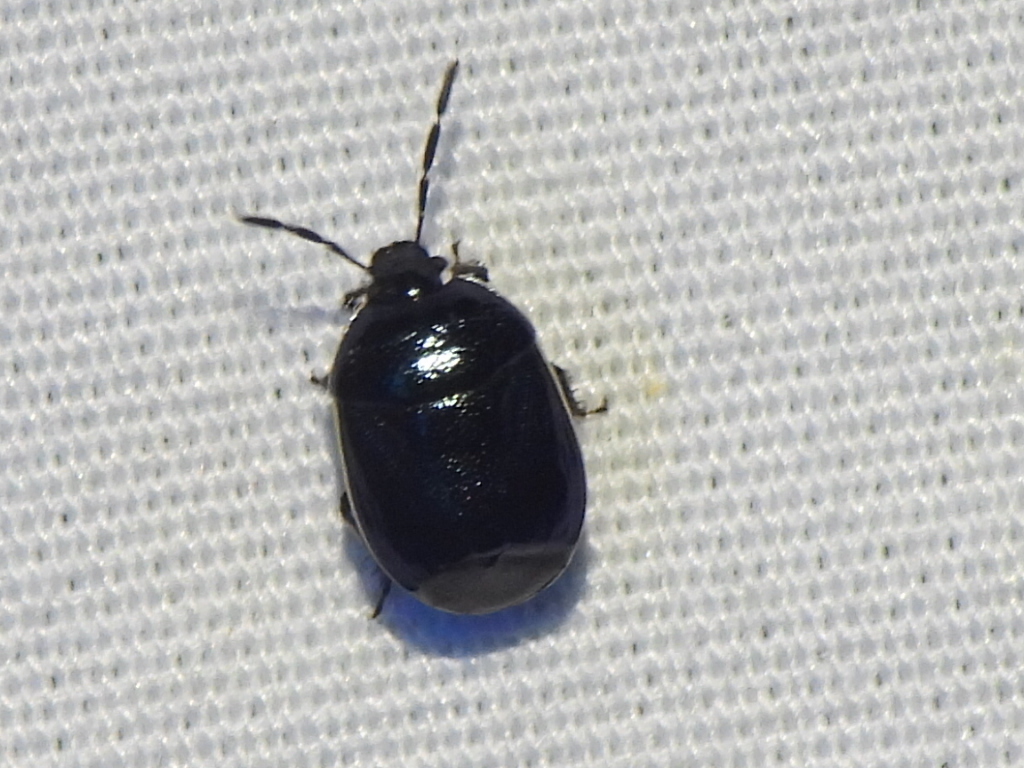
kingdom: Animalia
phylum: Arthropoda
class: Insecta
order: Hemiptera
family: Cydnidae
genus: Sehirus
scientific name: Sehirus cinctus
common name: White-margined burrower bug
